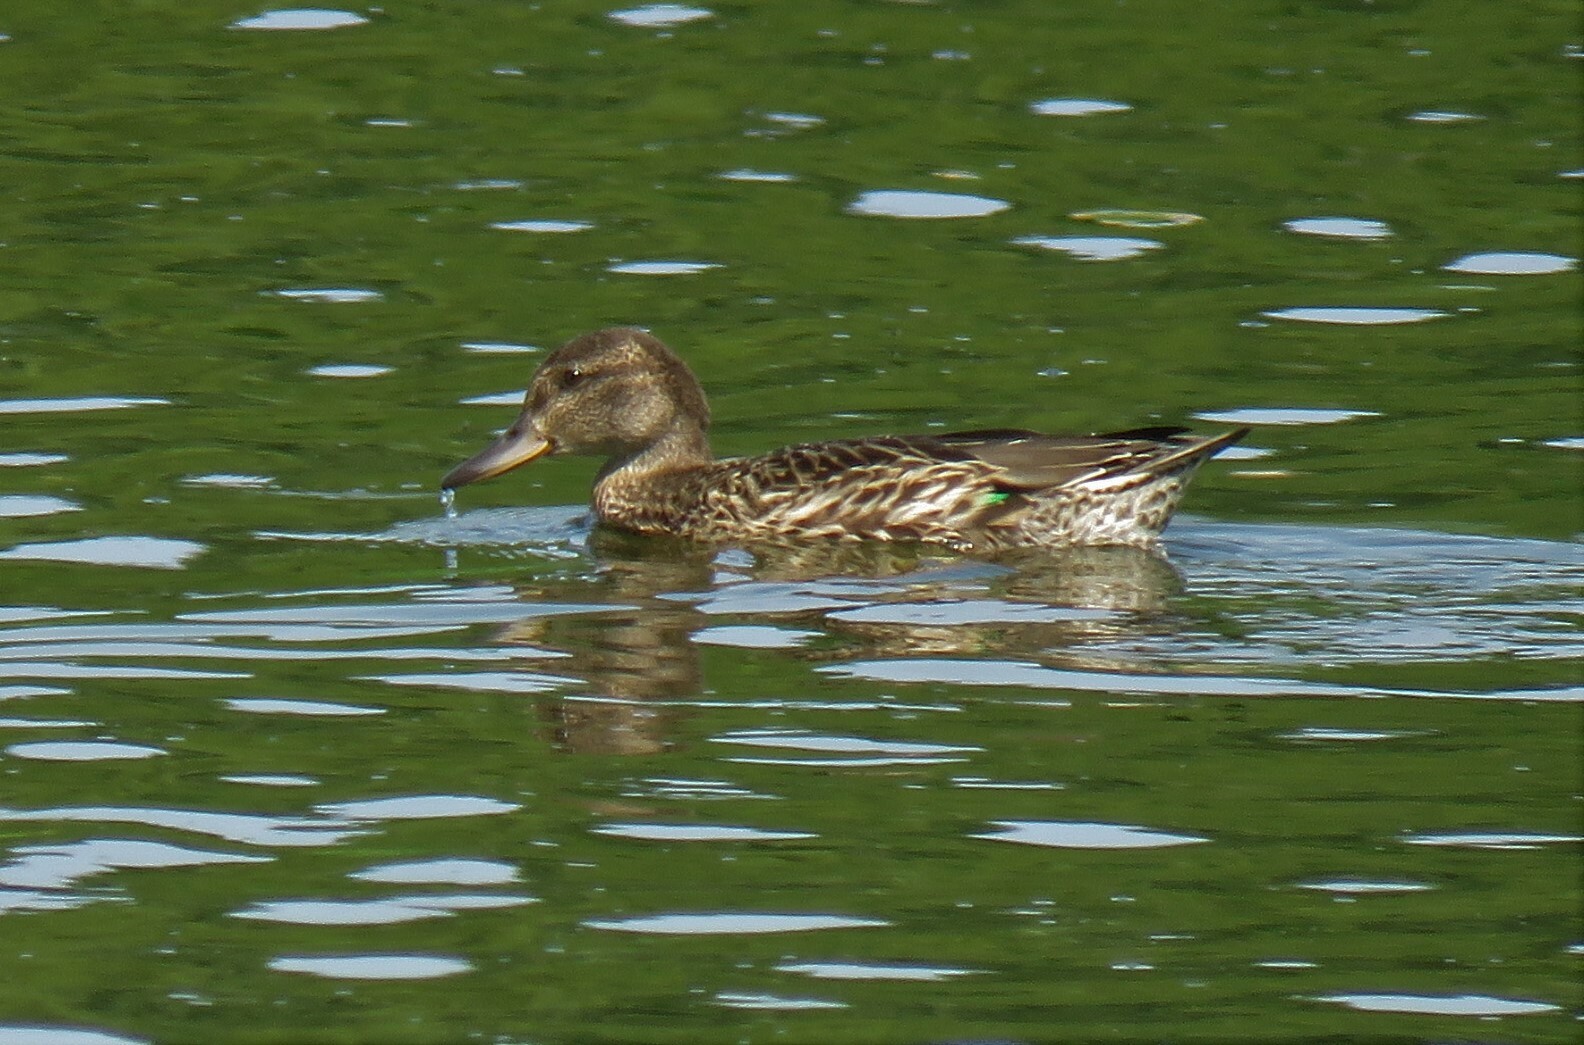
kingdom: Animalia
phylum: Chordata
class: Aves
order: Anseriformes
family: Anatidae
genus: Anas
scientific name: Anas crecca
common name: Eurasian teal
